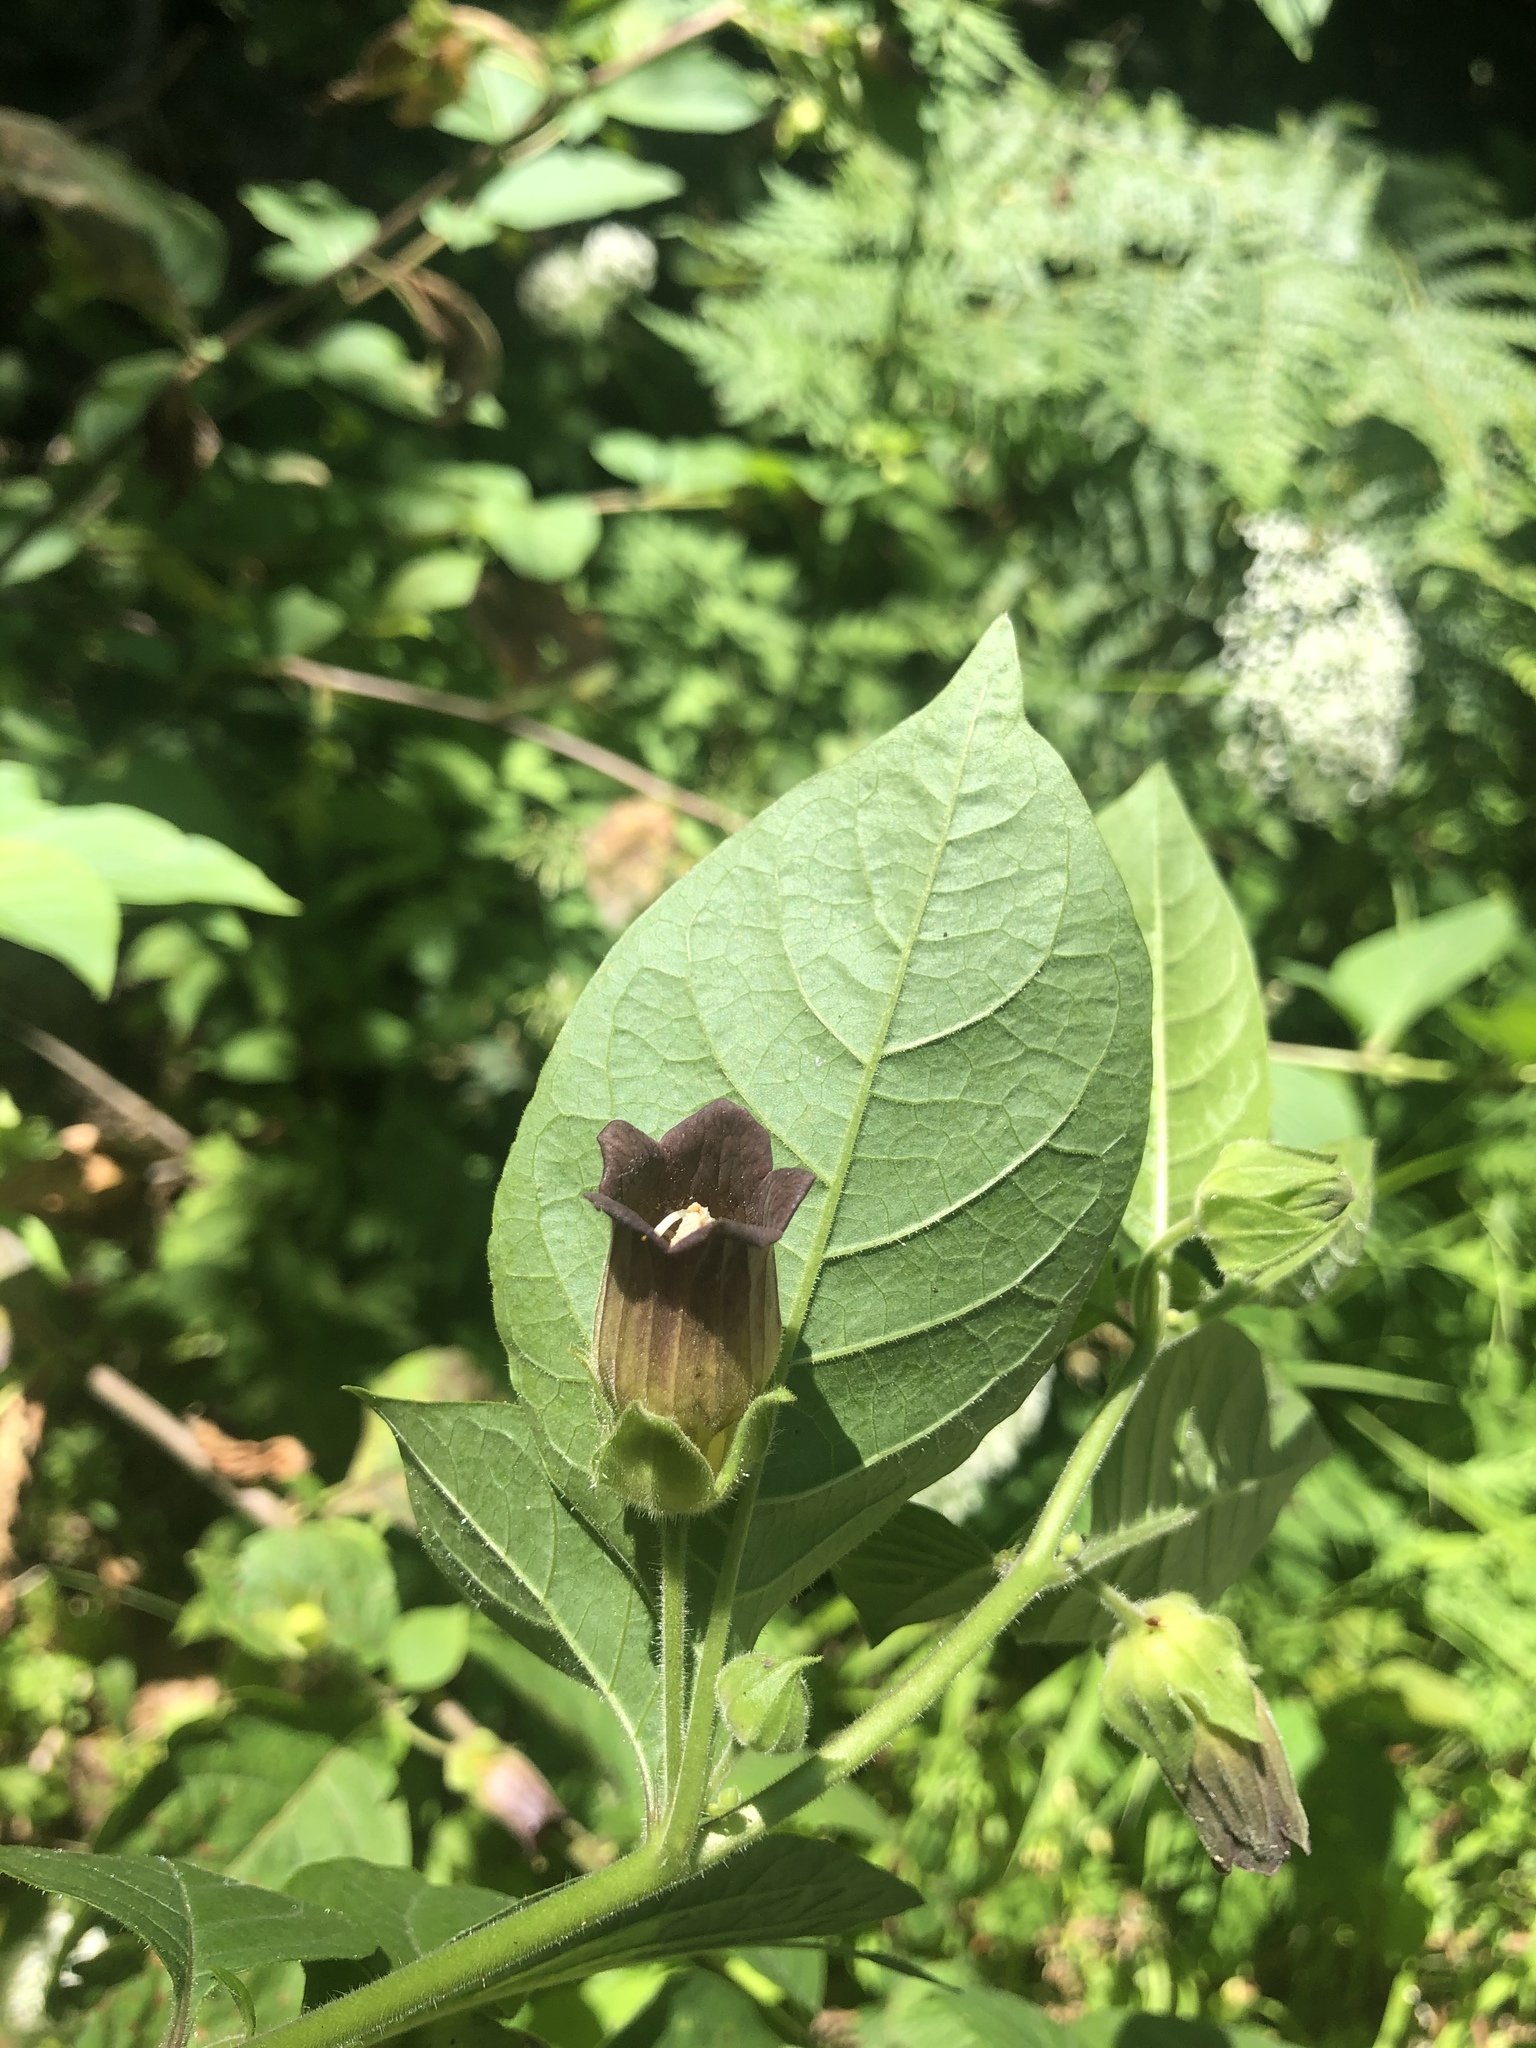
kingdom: Plantae
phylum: Tracheophyta
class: Magnoliopsida
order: Solanales
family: Solanaceae
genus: Atropa
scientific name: Atropa belladonna
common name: Deadly nightshade
